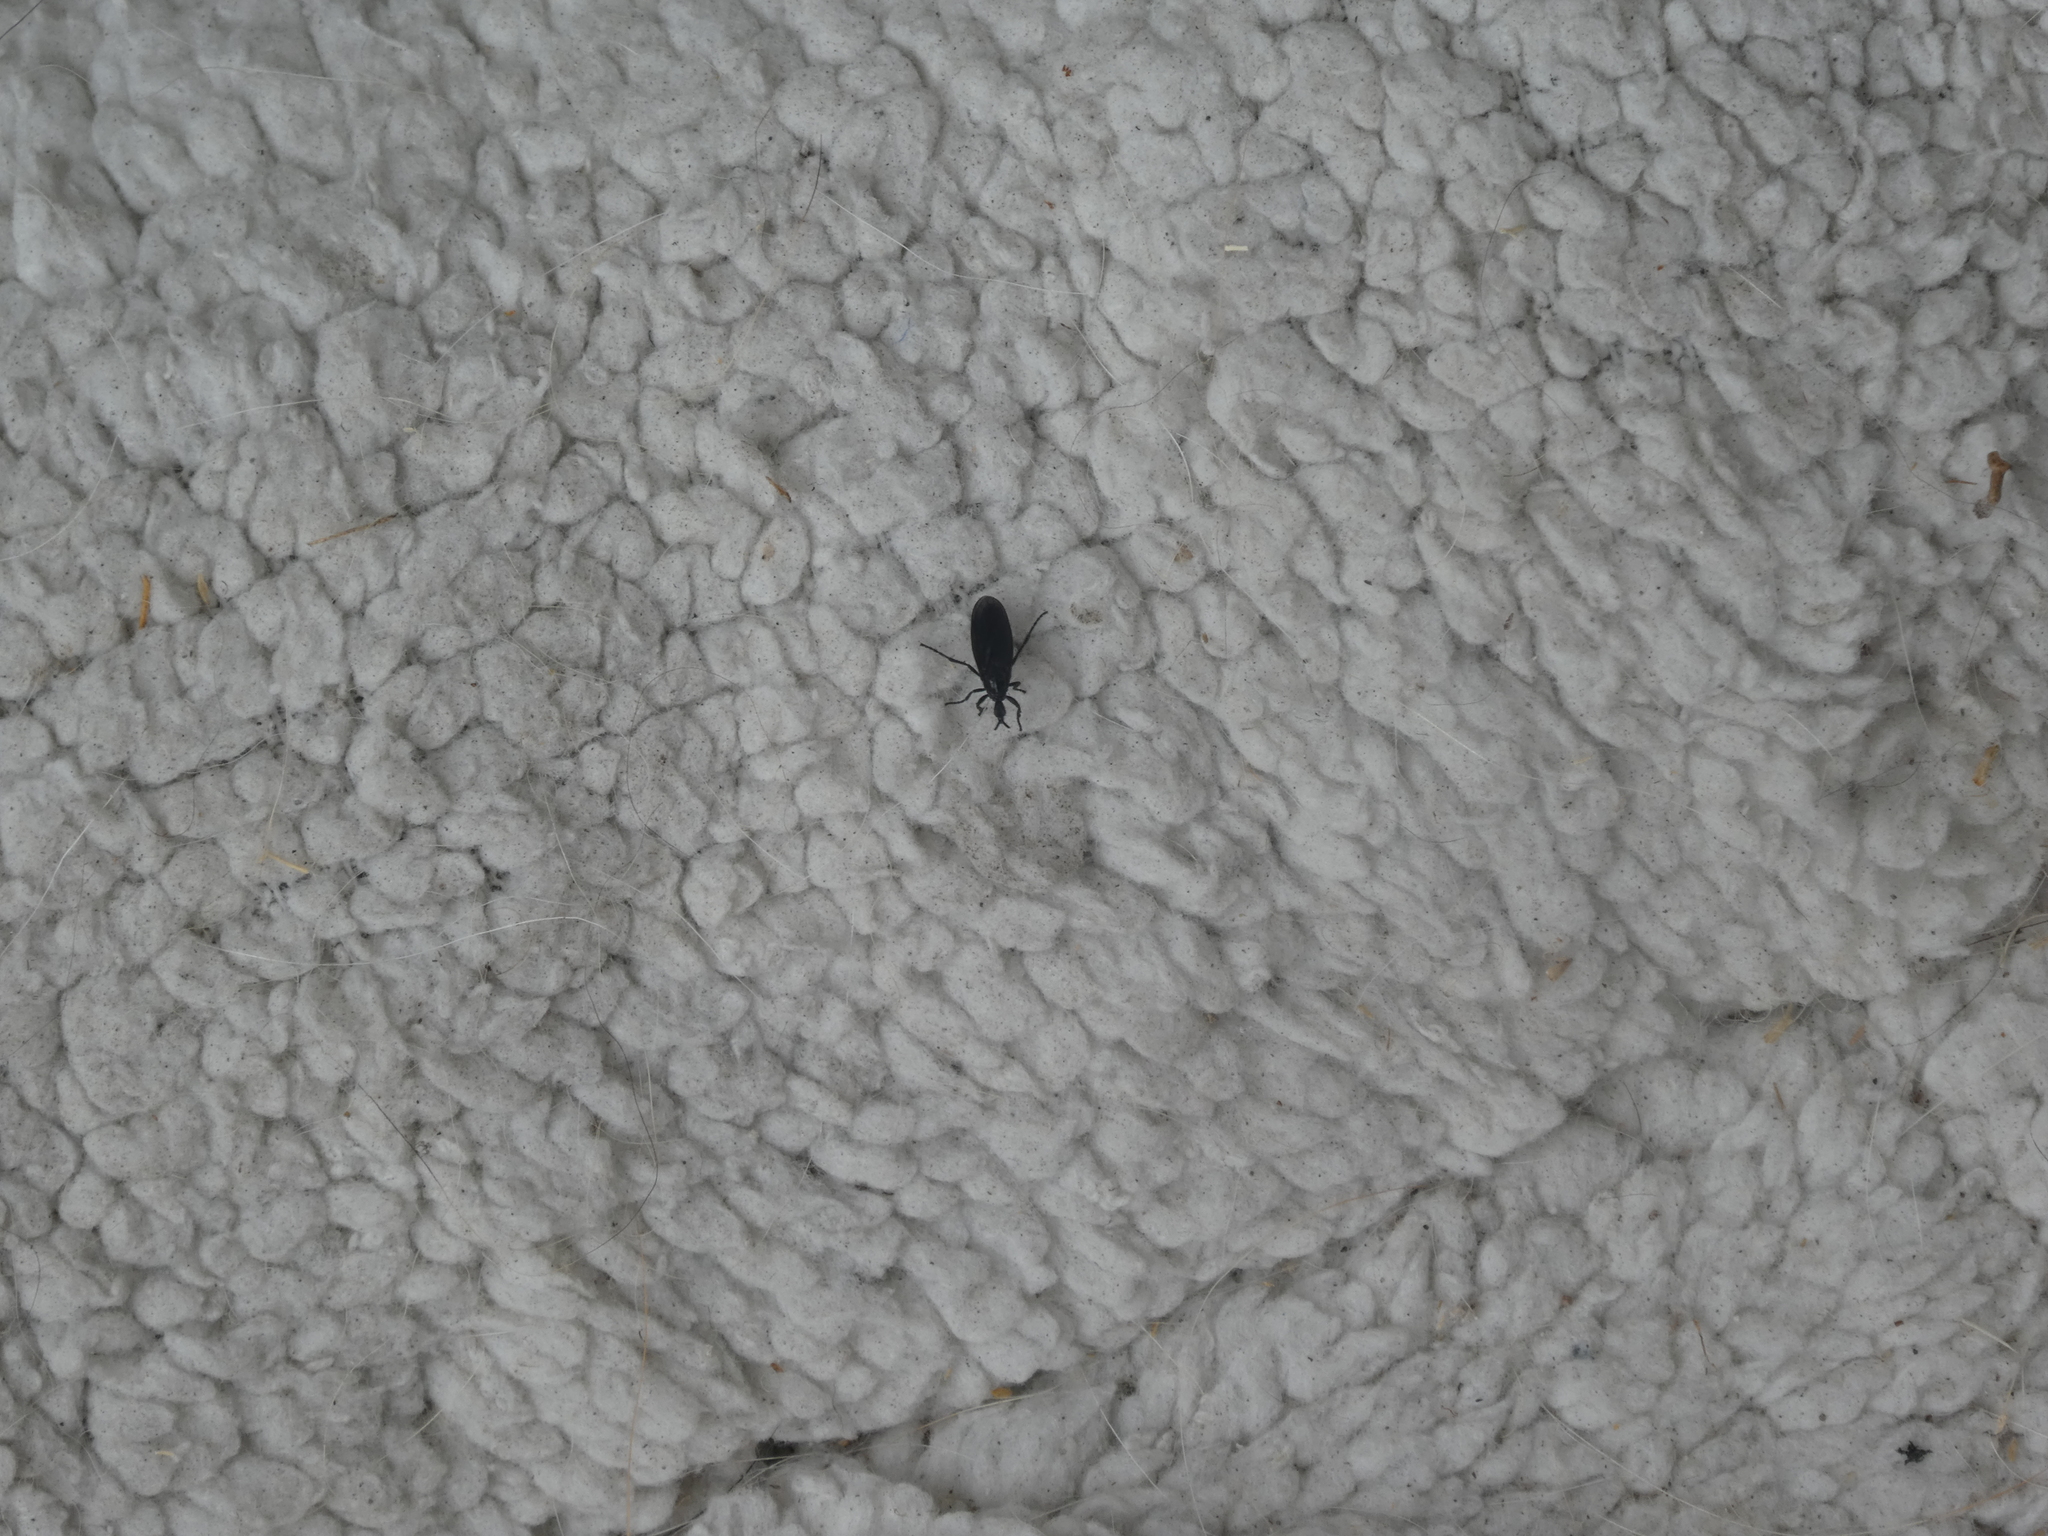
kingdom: Animalia
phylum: Arthropoda
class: Insecta
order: Diptera
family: Bibionidae
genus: Dilophus
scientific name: Dilophus orbatus
